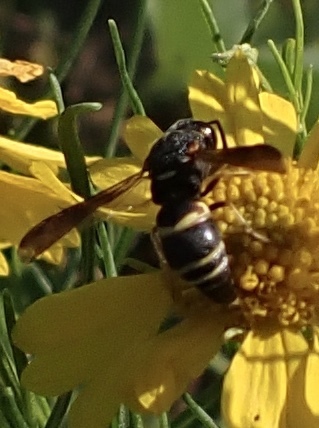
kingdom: Animalia
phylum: Arthropoda
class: Insecta
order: Hymenoptera
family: Eumenidae
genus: Euodynerus
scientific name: Euodynerus hidalgo
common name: Wasp
